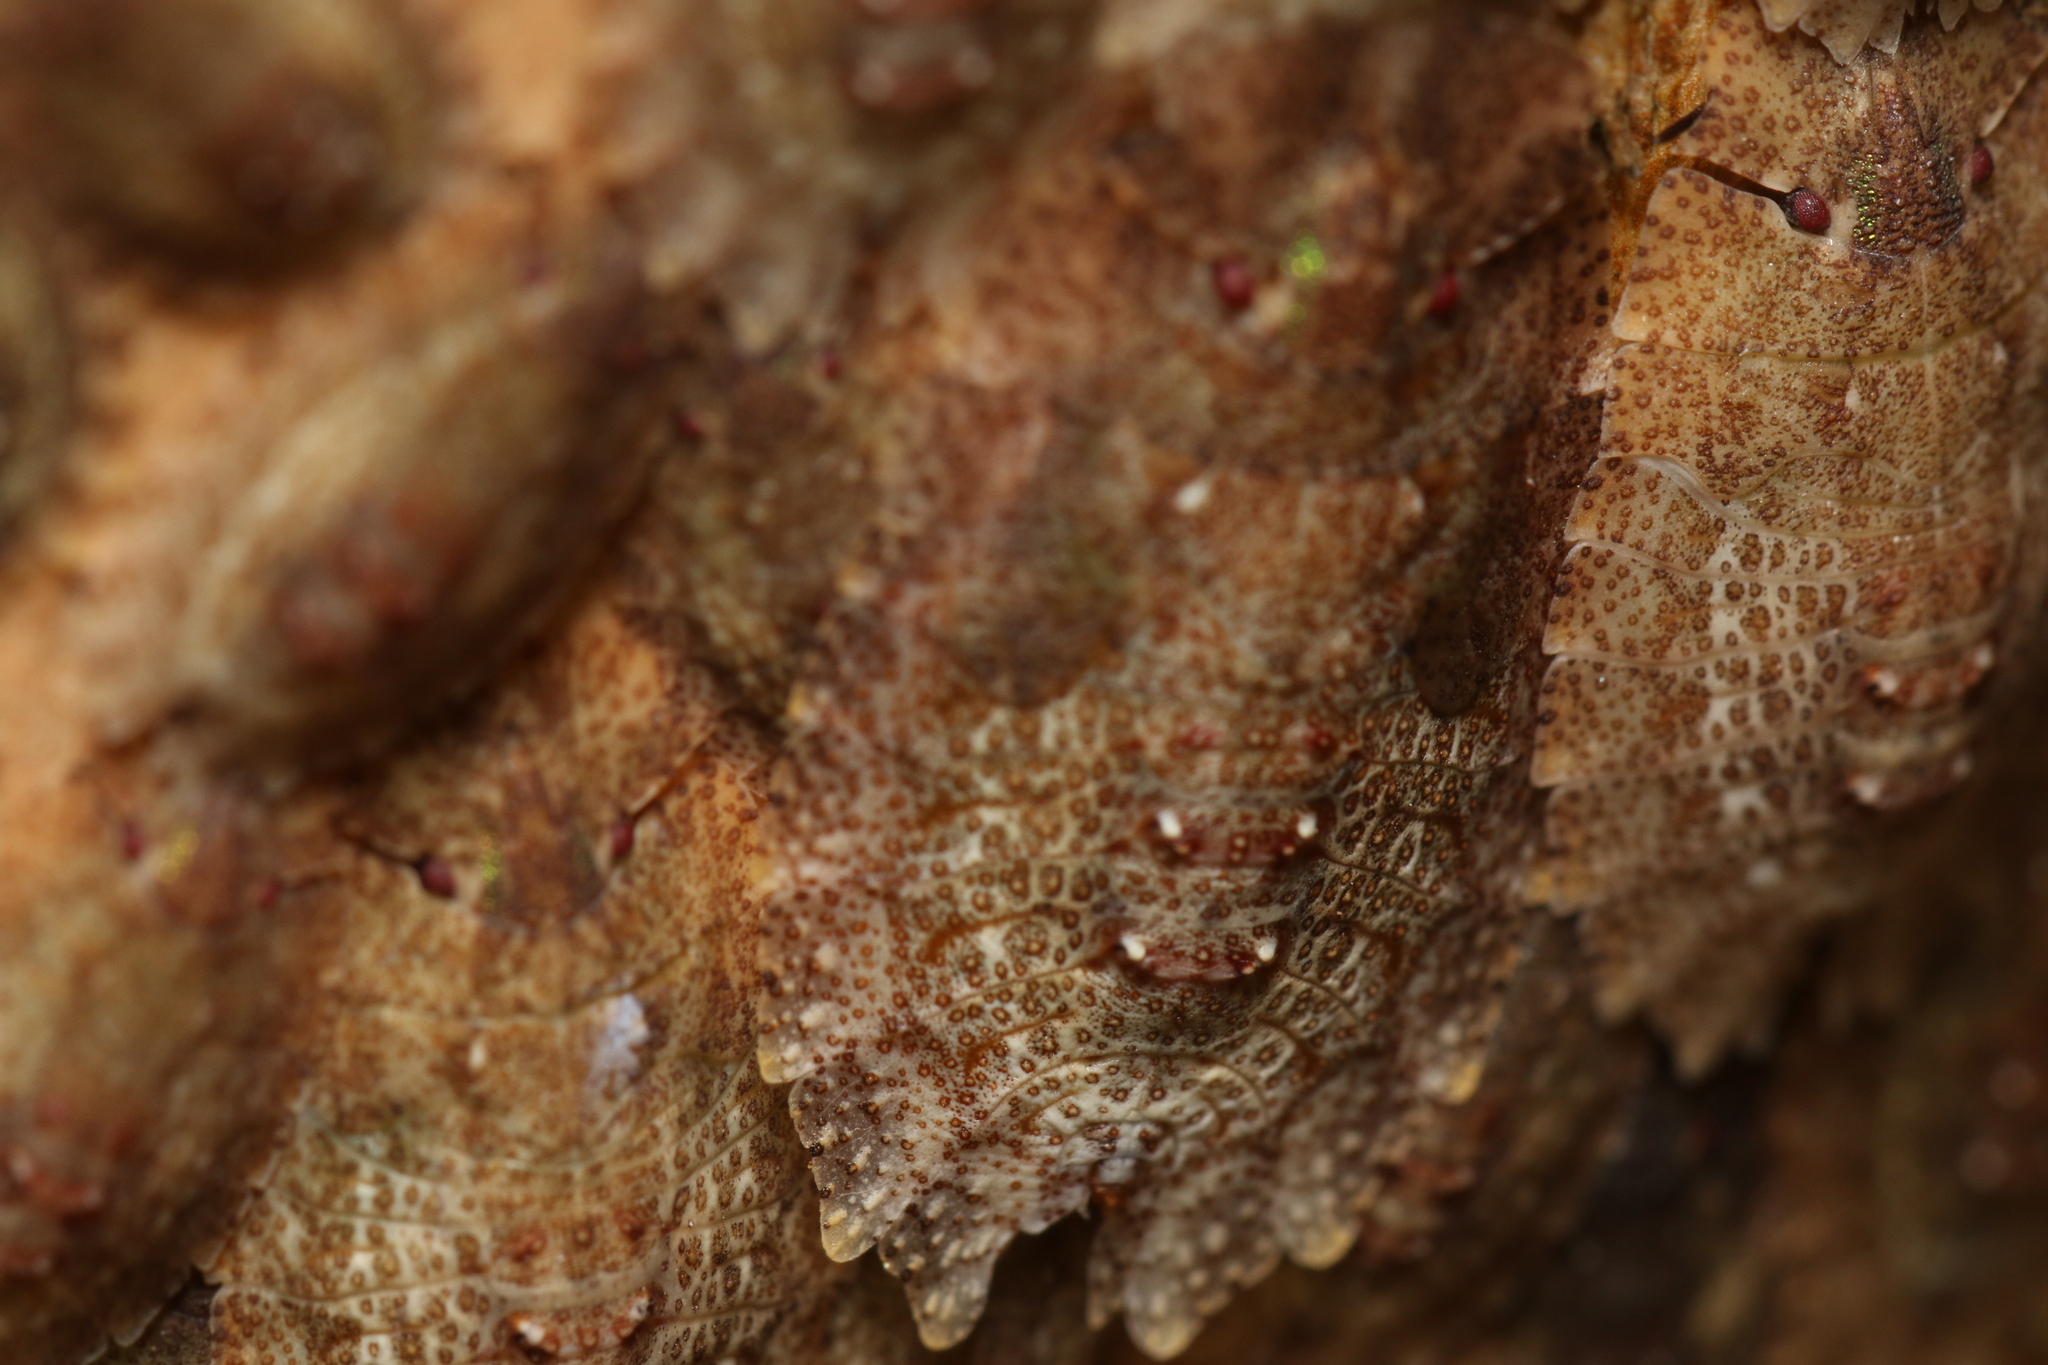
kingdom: Animalia
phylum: Arthropoda
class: Insecta
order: Hemiptera
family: Phleides
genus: Phloea
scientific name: Phloea
